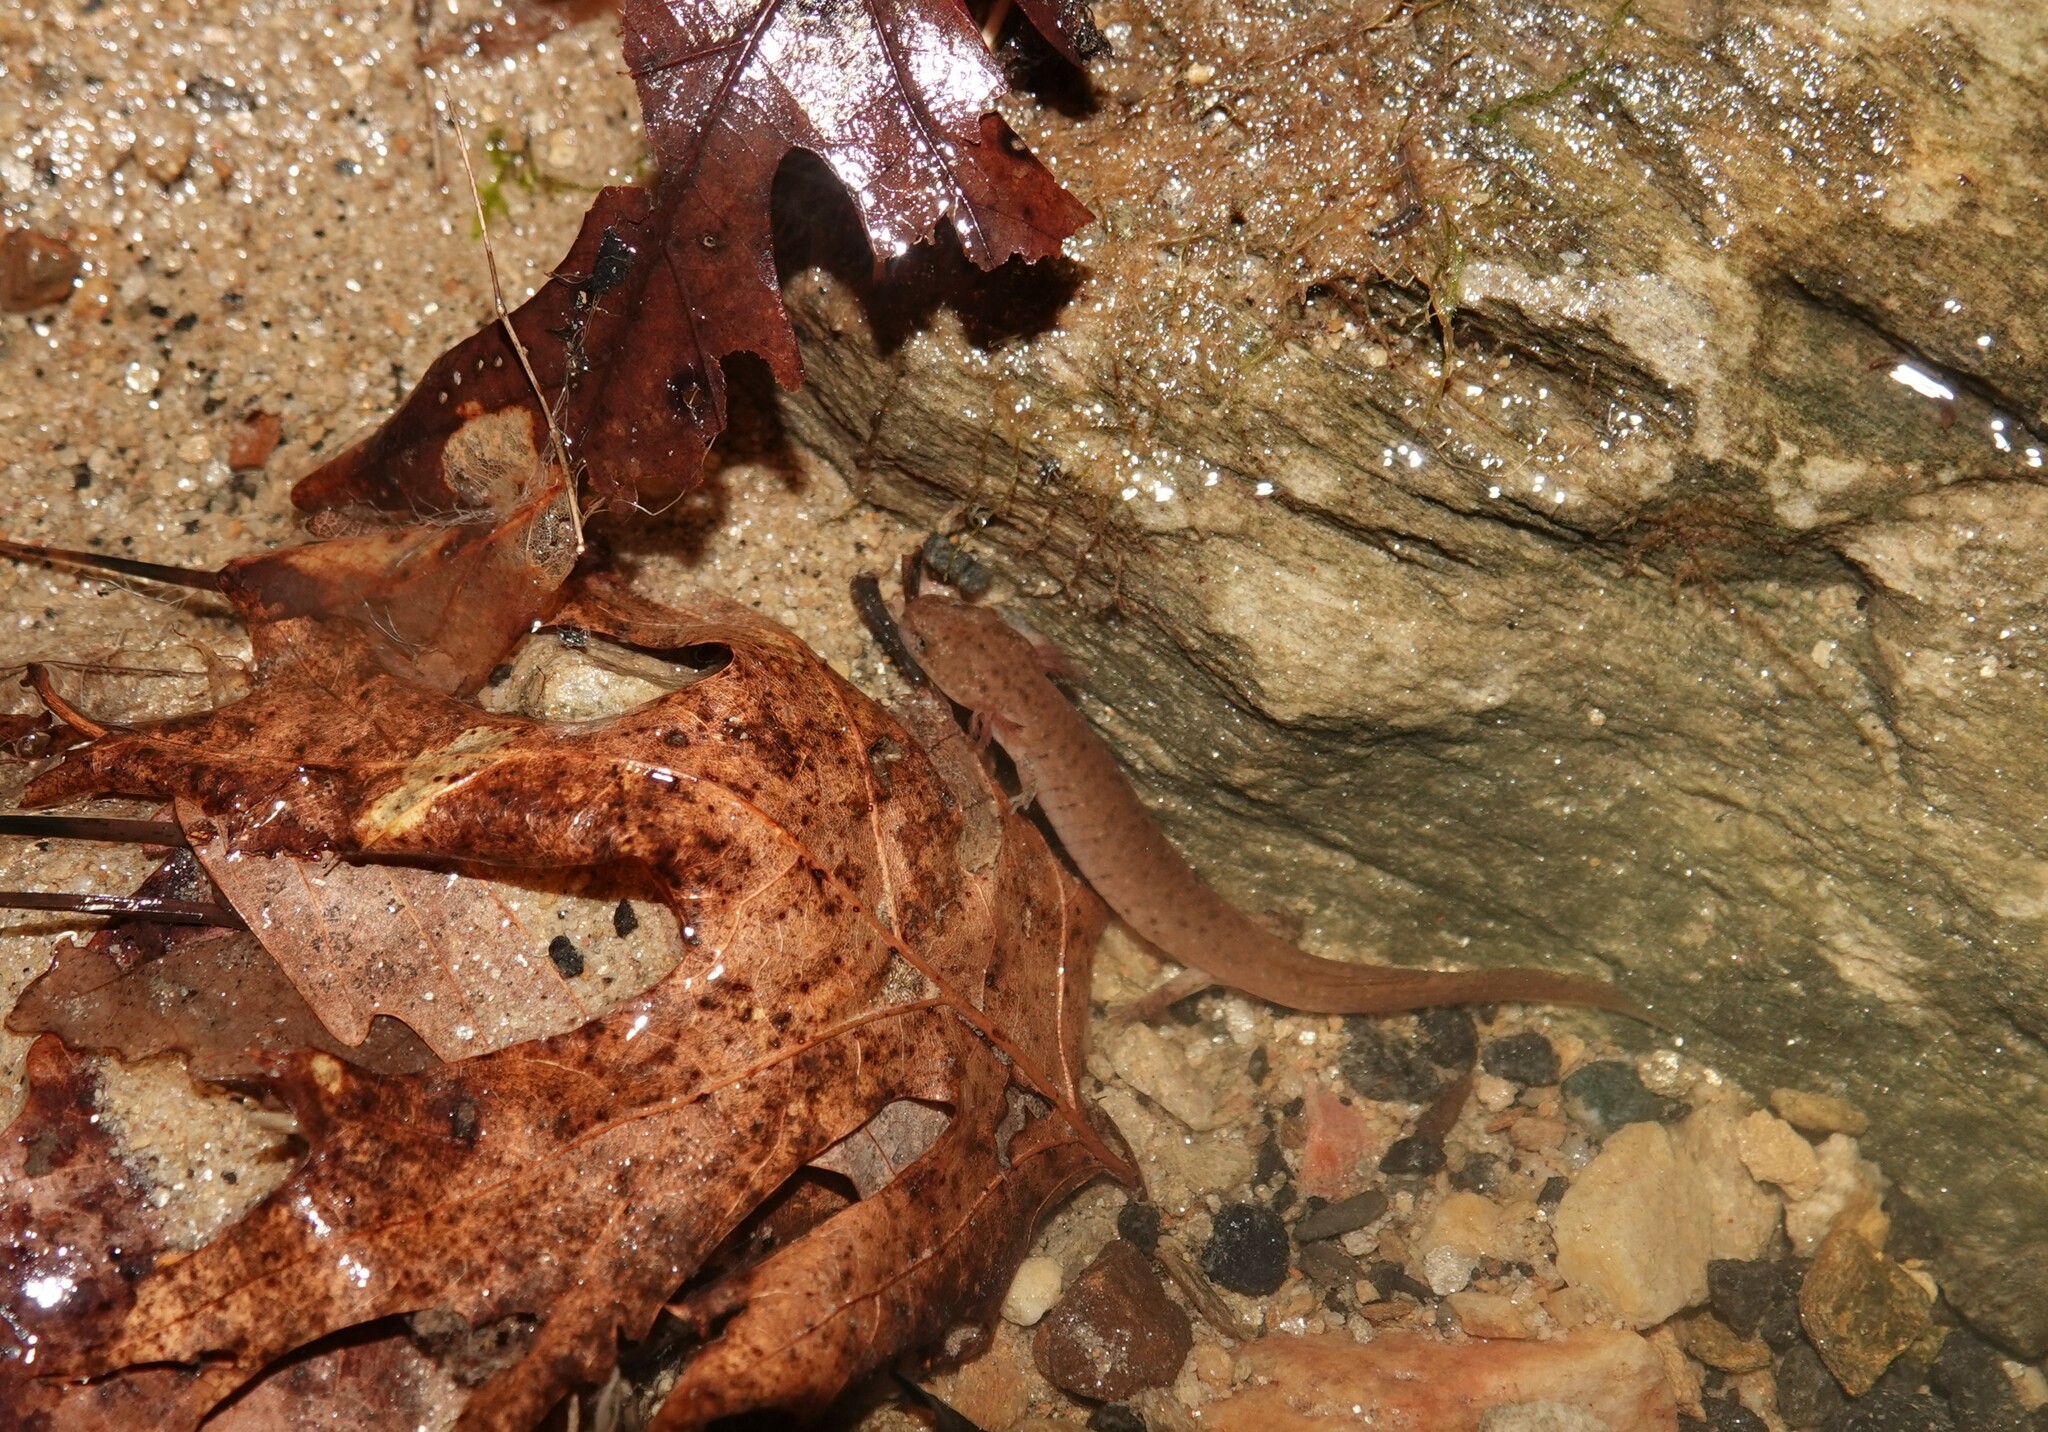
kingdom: Animalia
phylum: Chordata
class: Amphibia
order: Caudata
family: Plethodontidae
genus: Pseudotriton
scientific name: Pseudotriton ruber
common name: Red salamander
